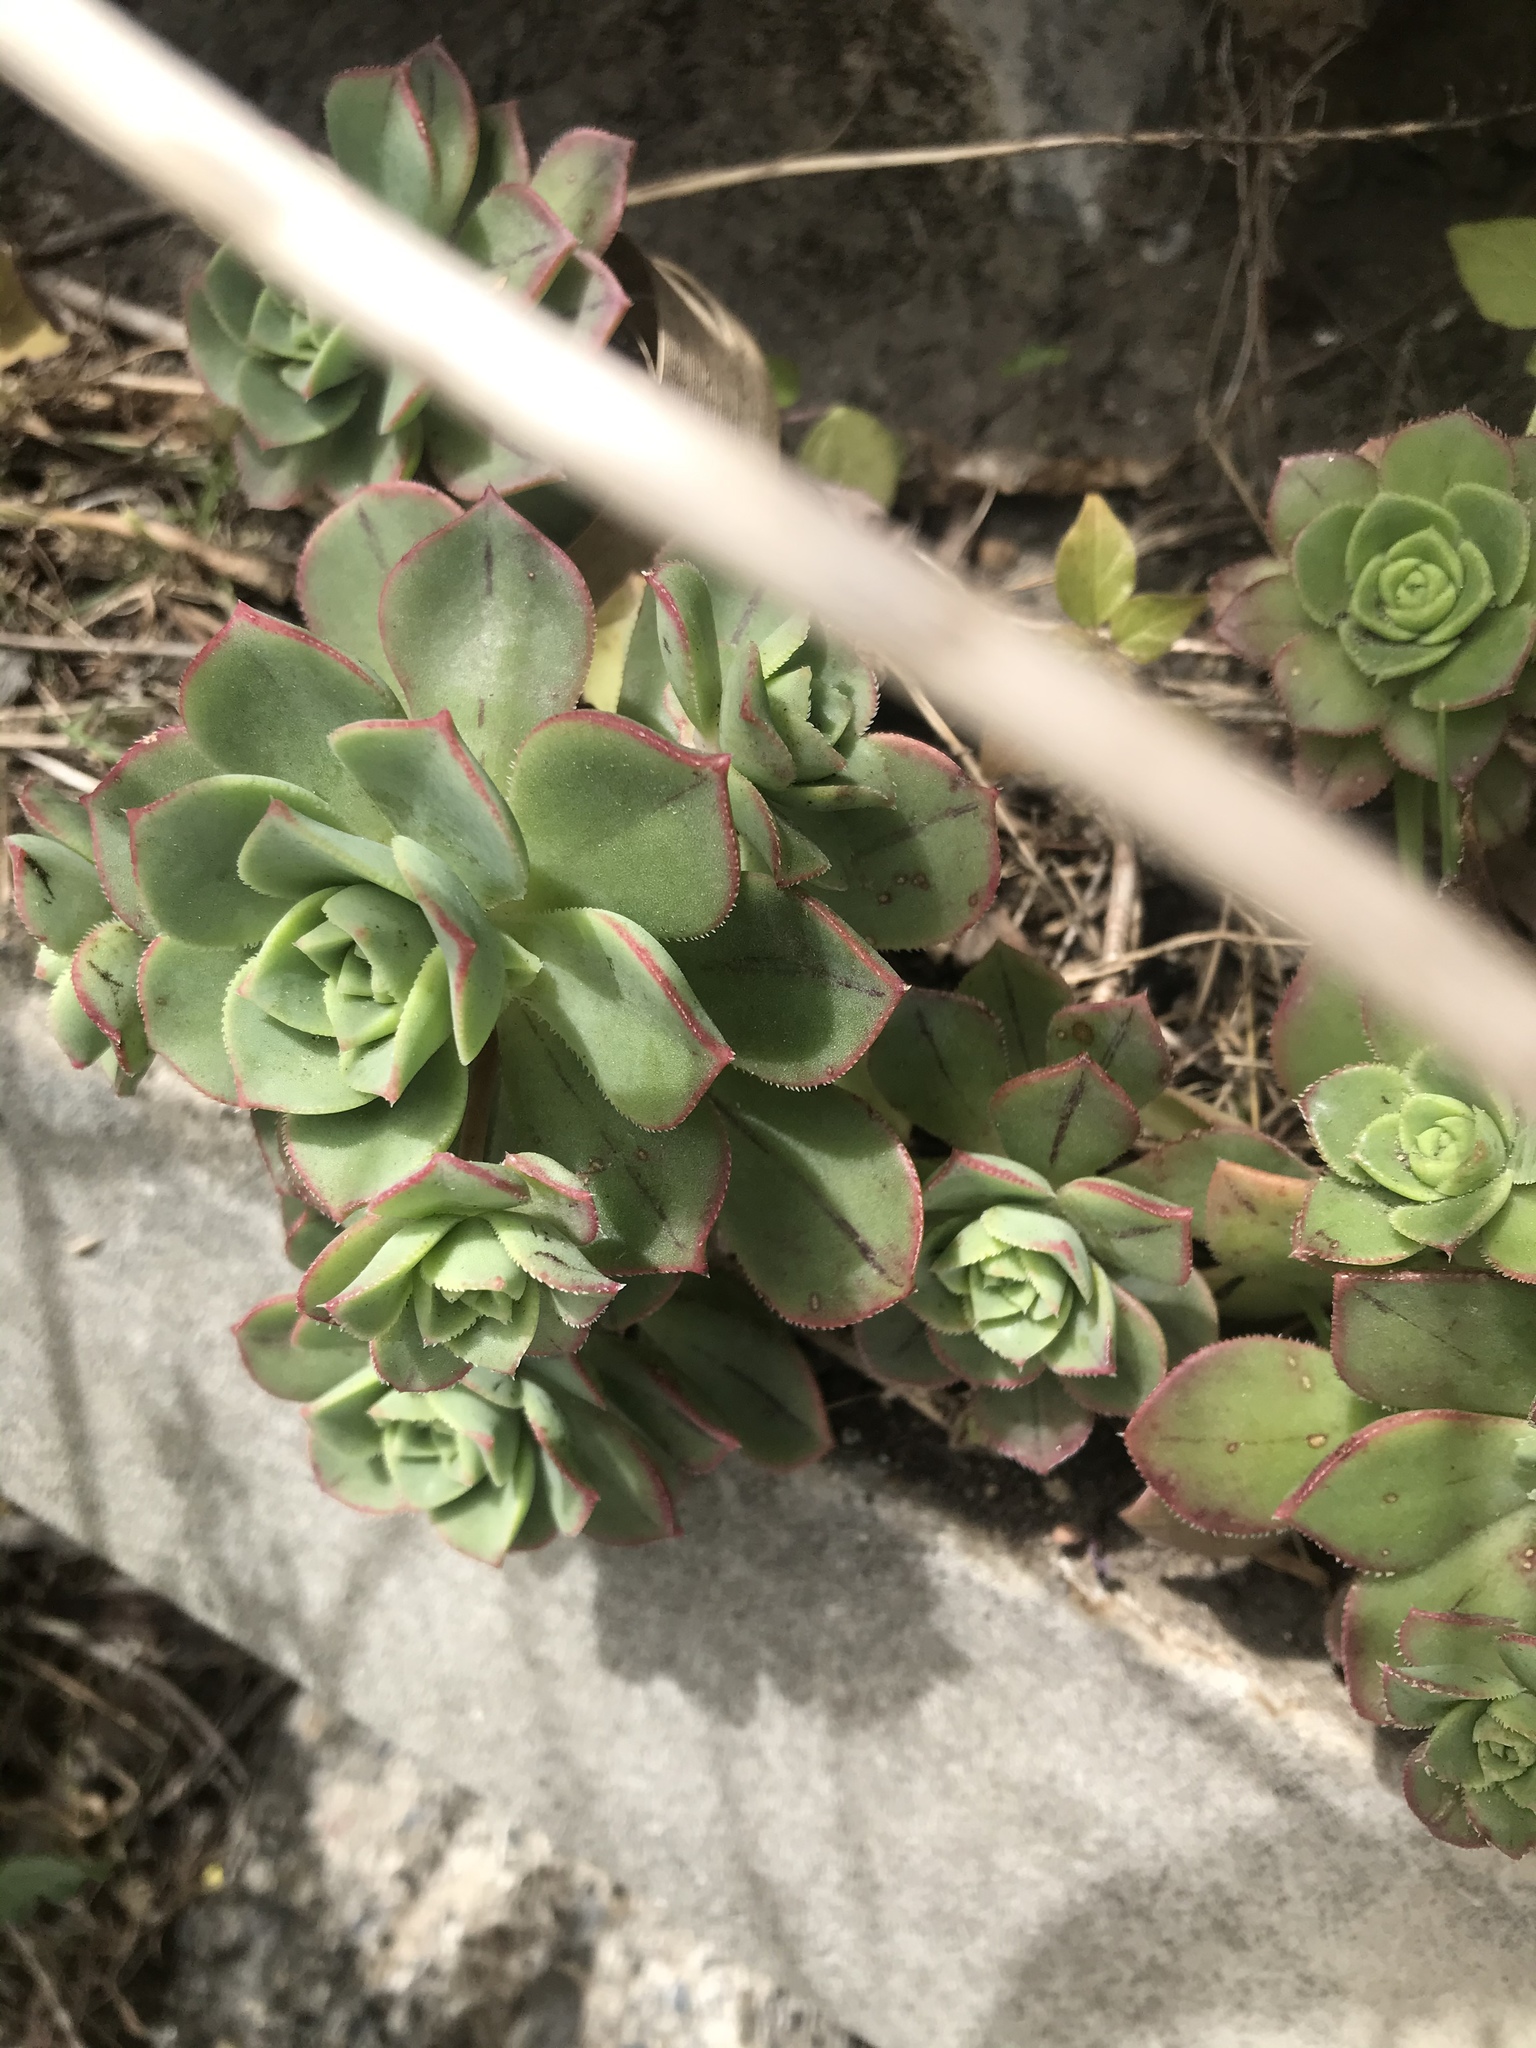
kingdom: Plantae
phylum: Tracheophyta
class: Magnoliopsida
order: Saxifragales
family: Crassulaceae
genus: Aeonium
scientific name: Aeonium haworthii
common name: Haworth's aeonium
